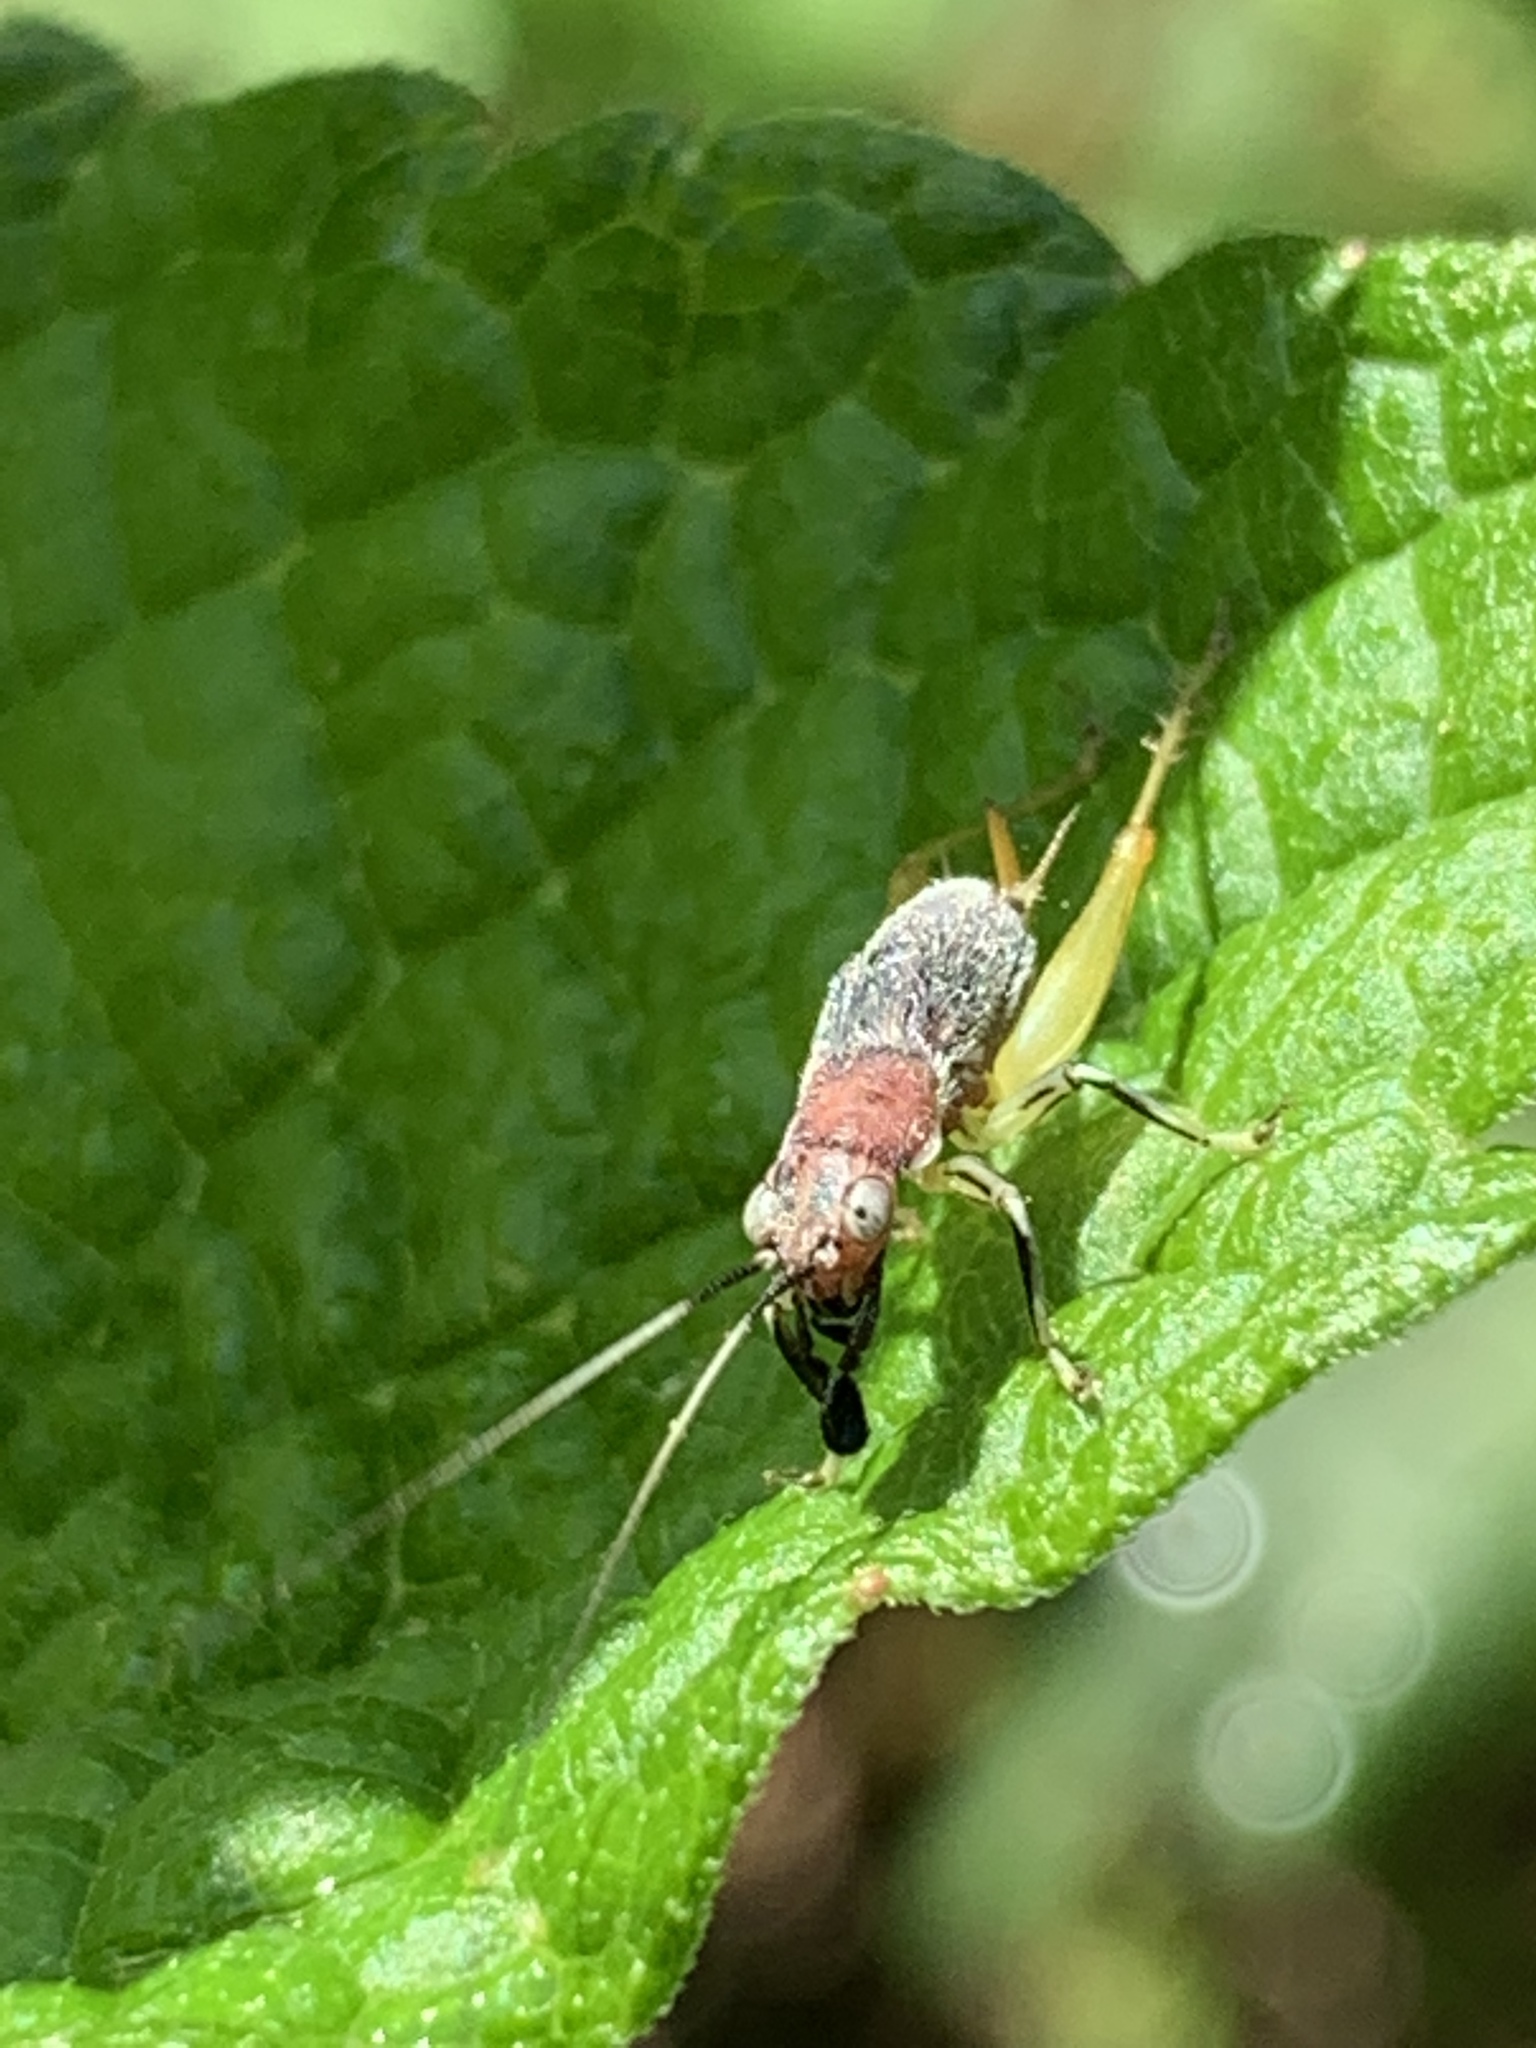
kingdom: Animalia
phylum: Arthropoda
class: Insecta
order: Orthoptera
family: Trigonidiidae
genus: Phyllopalpus
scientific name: Phyllopalpus pulchellus
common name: Handsome trig
